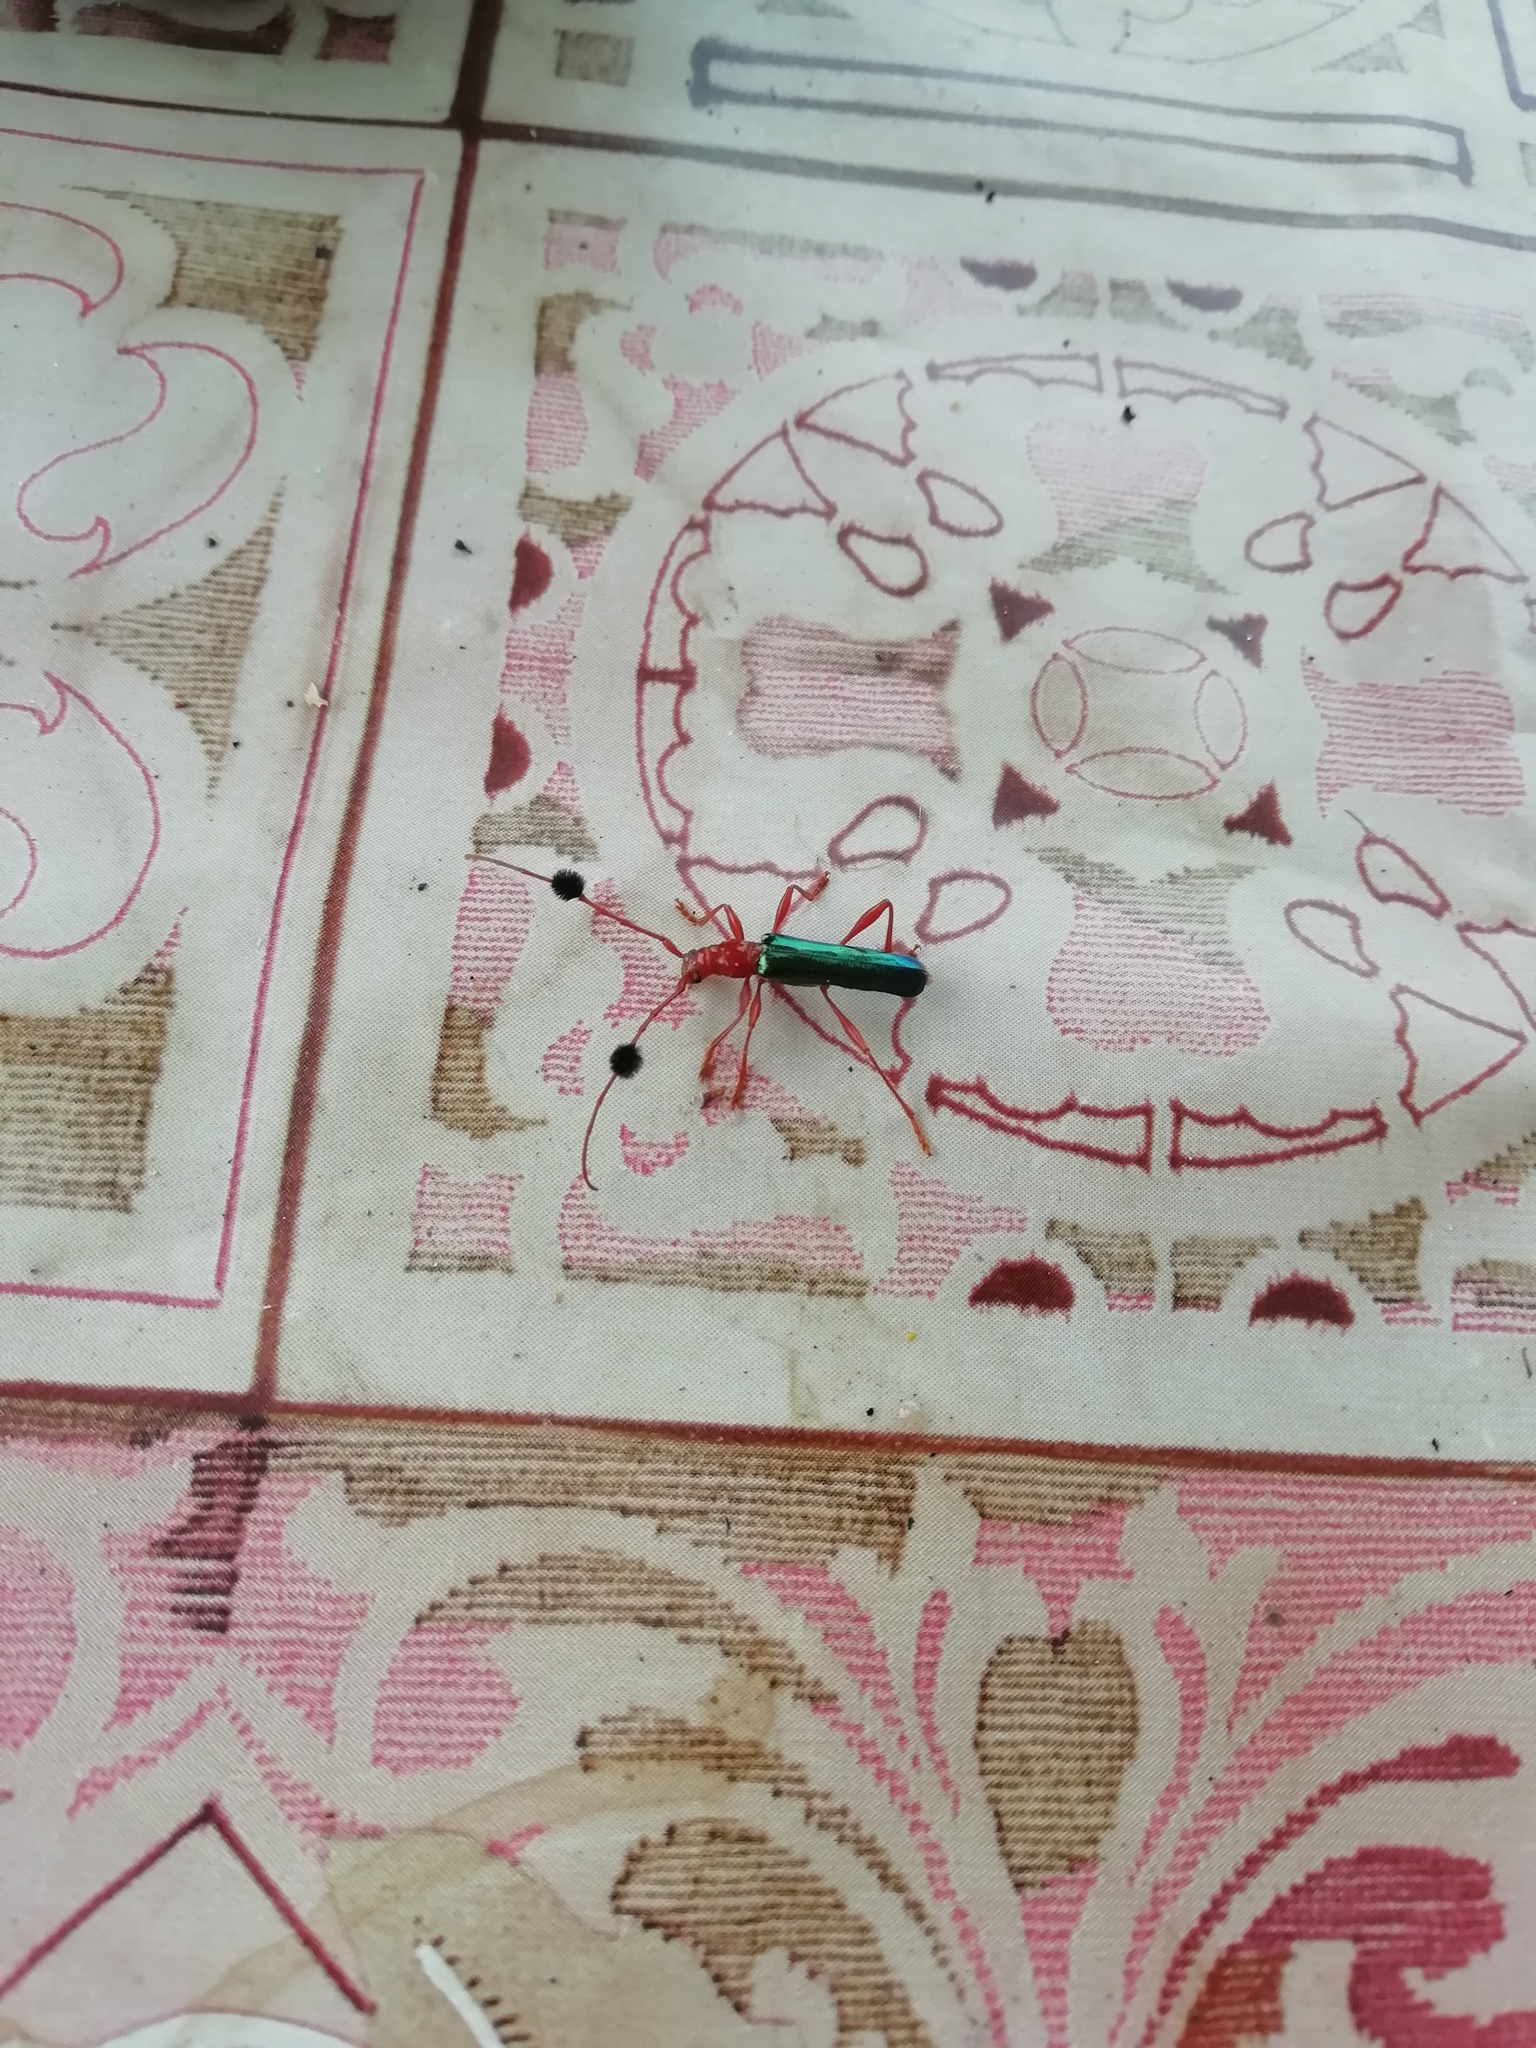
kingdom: Animalia
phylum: Arthropoda
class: Insecta
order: Coleoptera
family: Cerambycidae
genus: Paromoeocerus
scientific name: Paromoeocerus barbicornis
